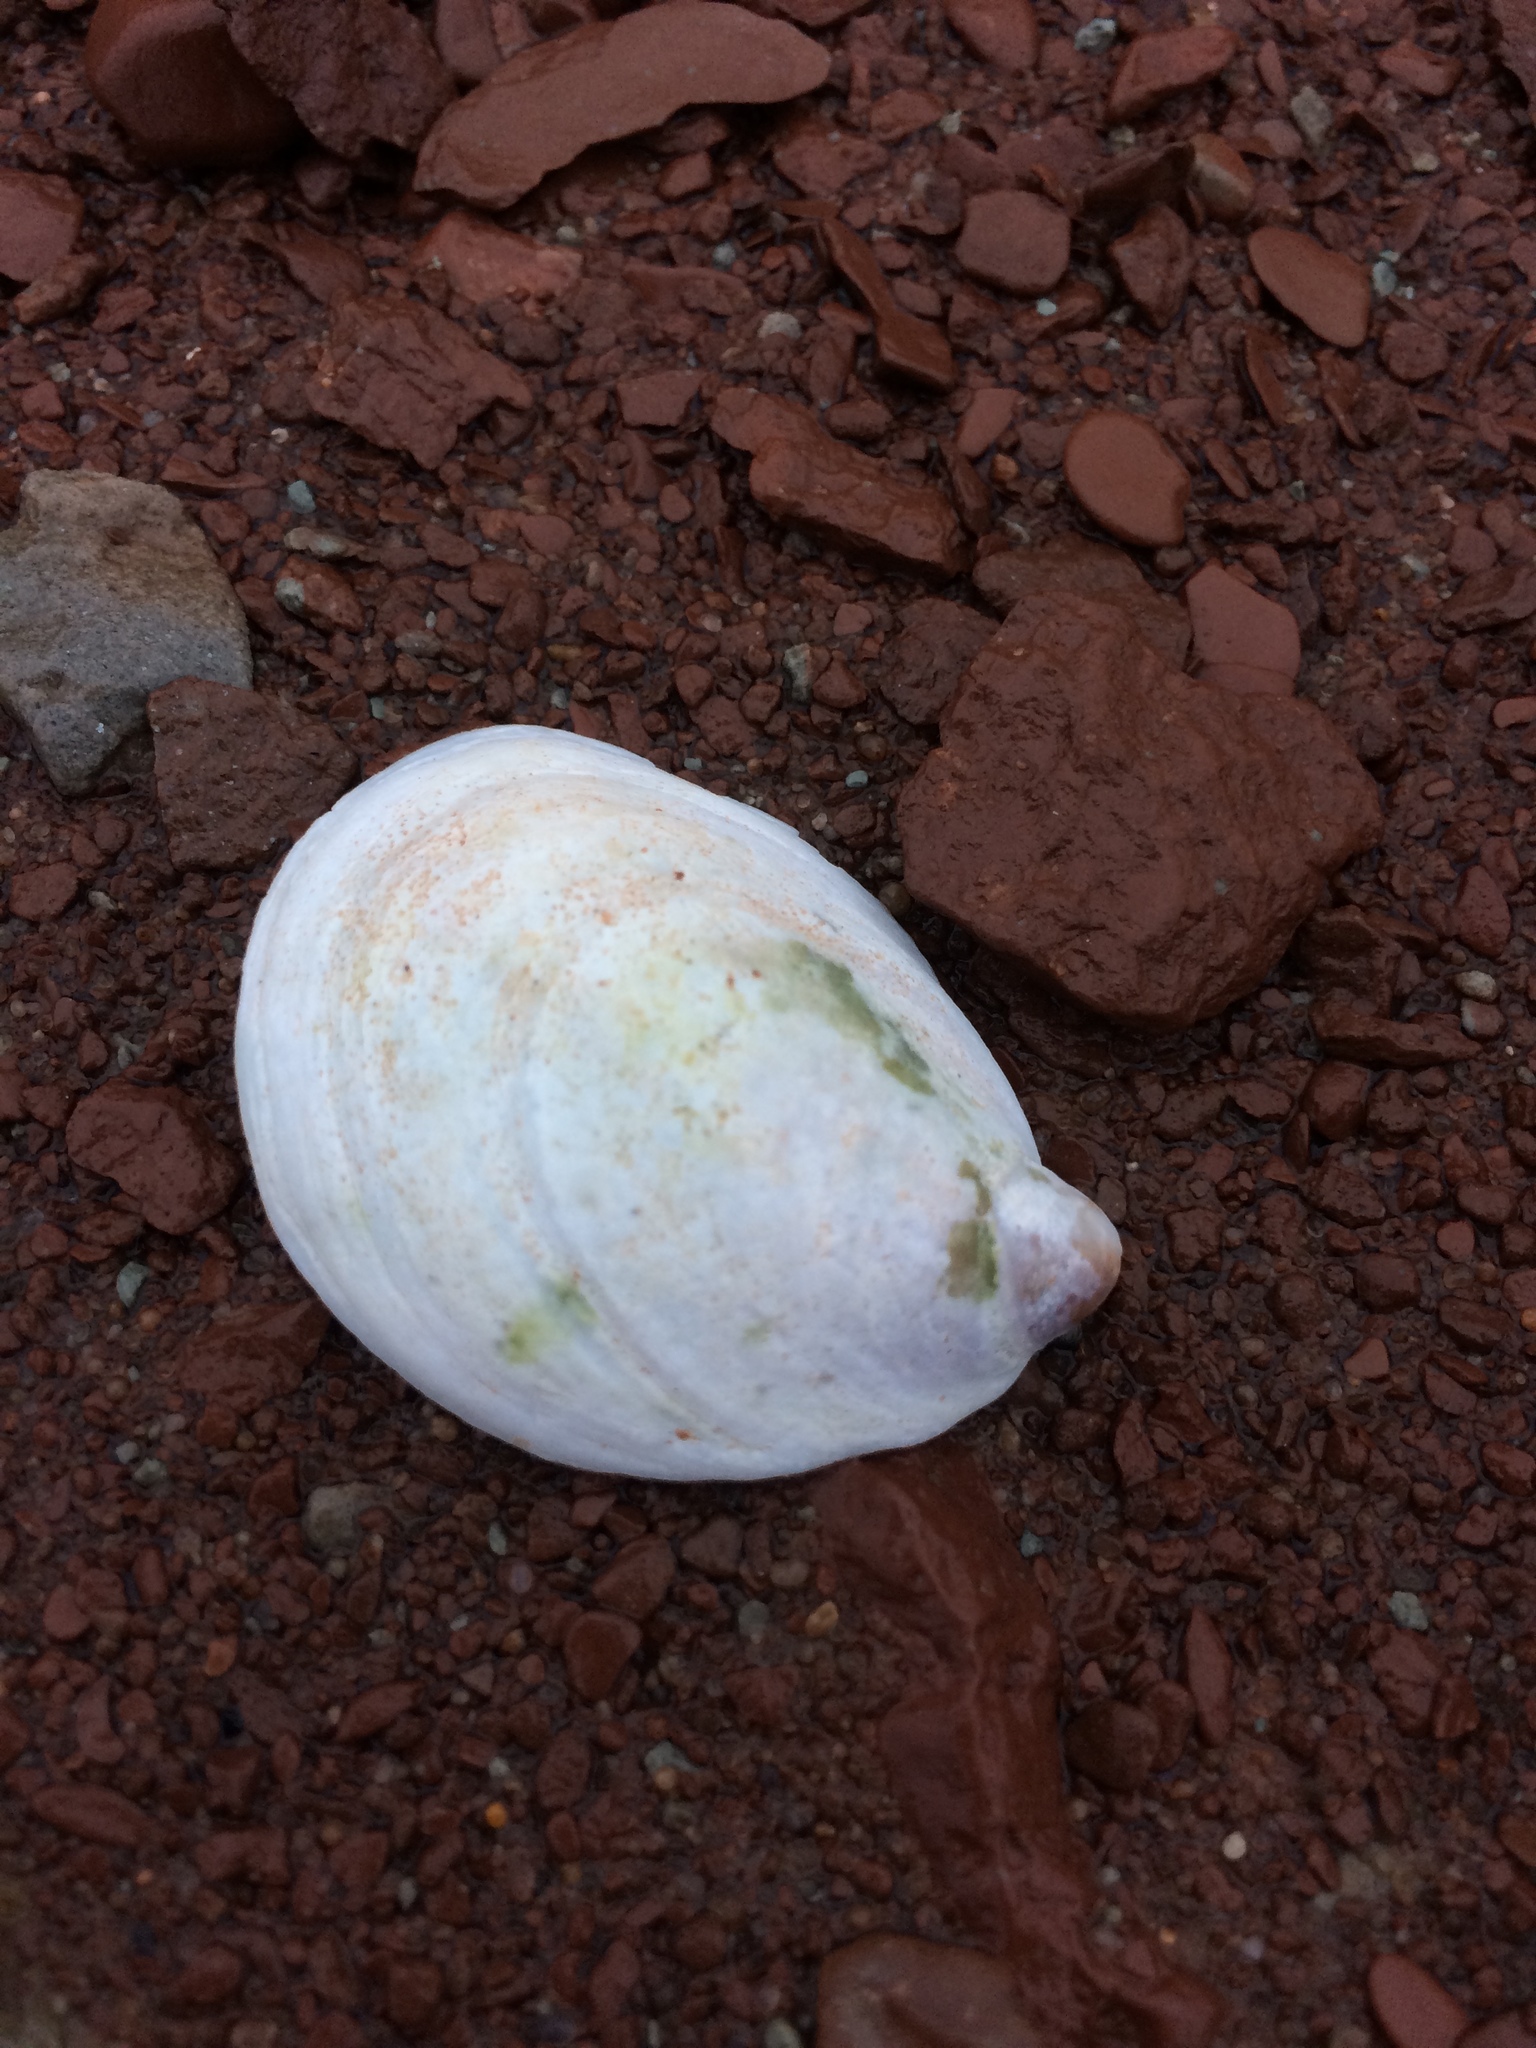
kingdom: Animalia
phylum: Mollusca
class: Gastropoda
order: Littorinimorpha
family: Calyptraeidae
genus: Crepidula
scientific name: Crepidula fornicata
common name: Slipper limpet
